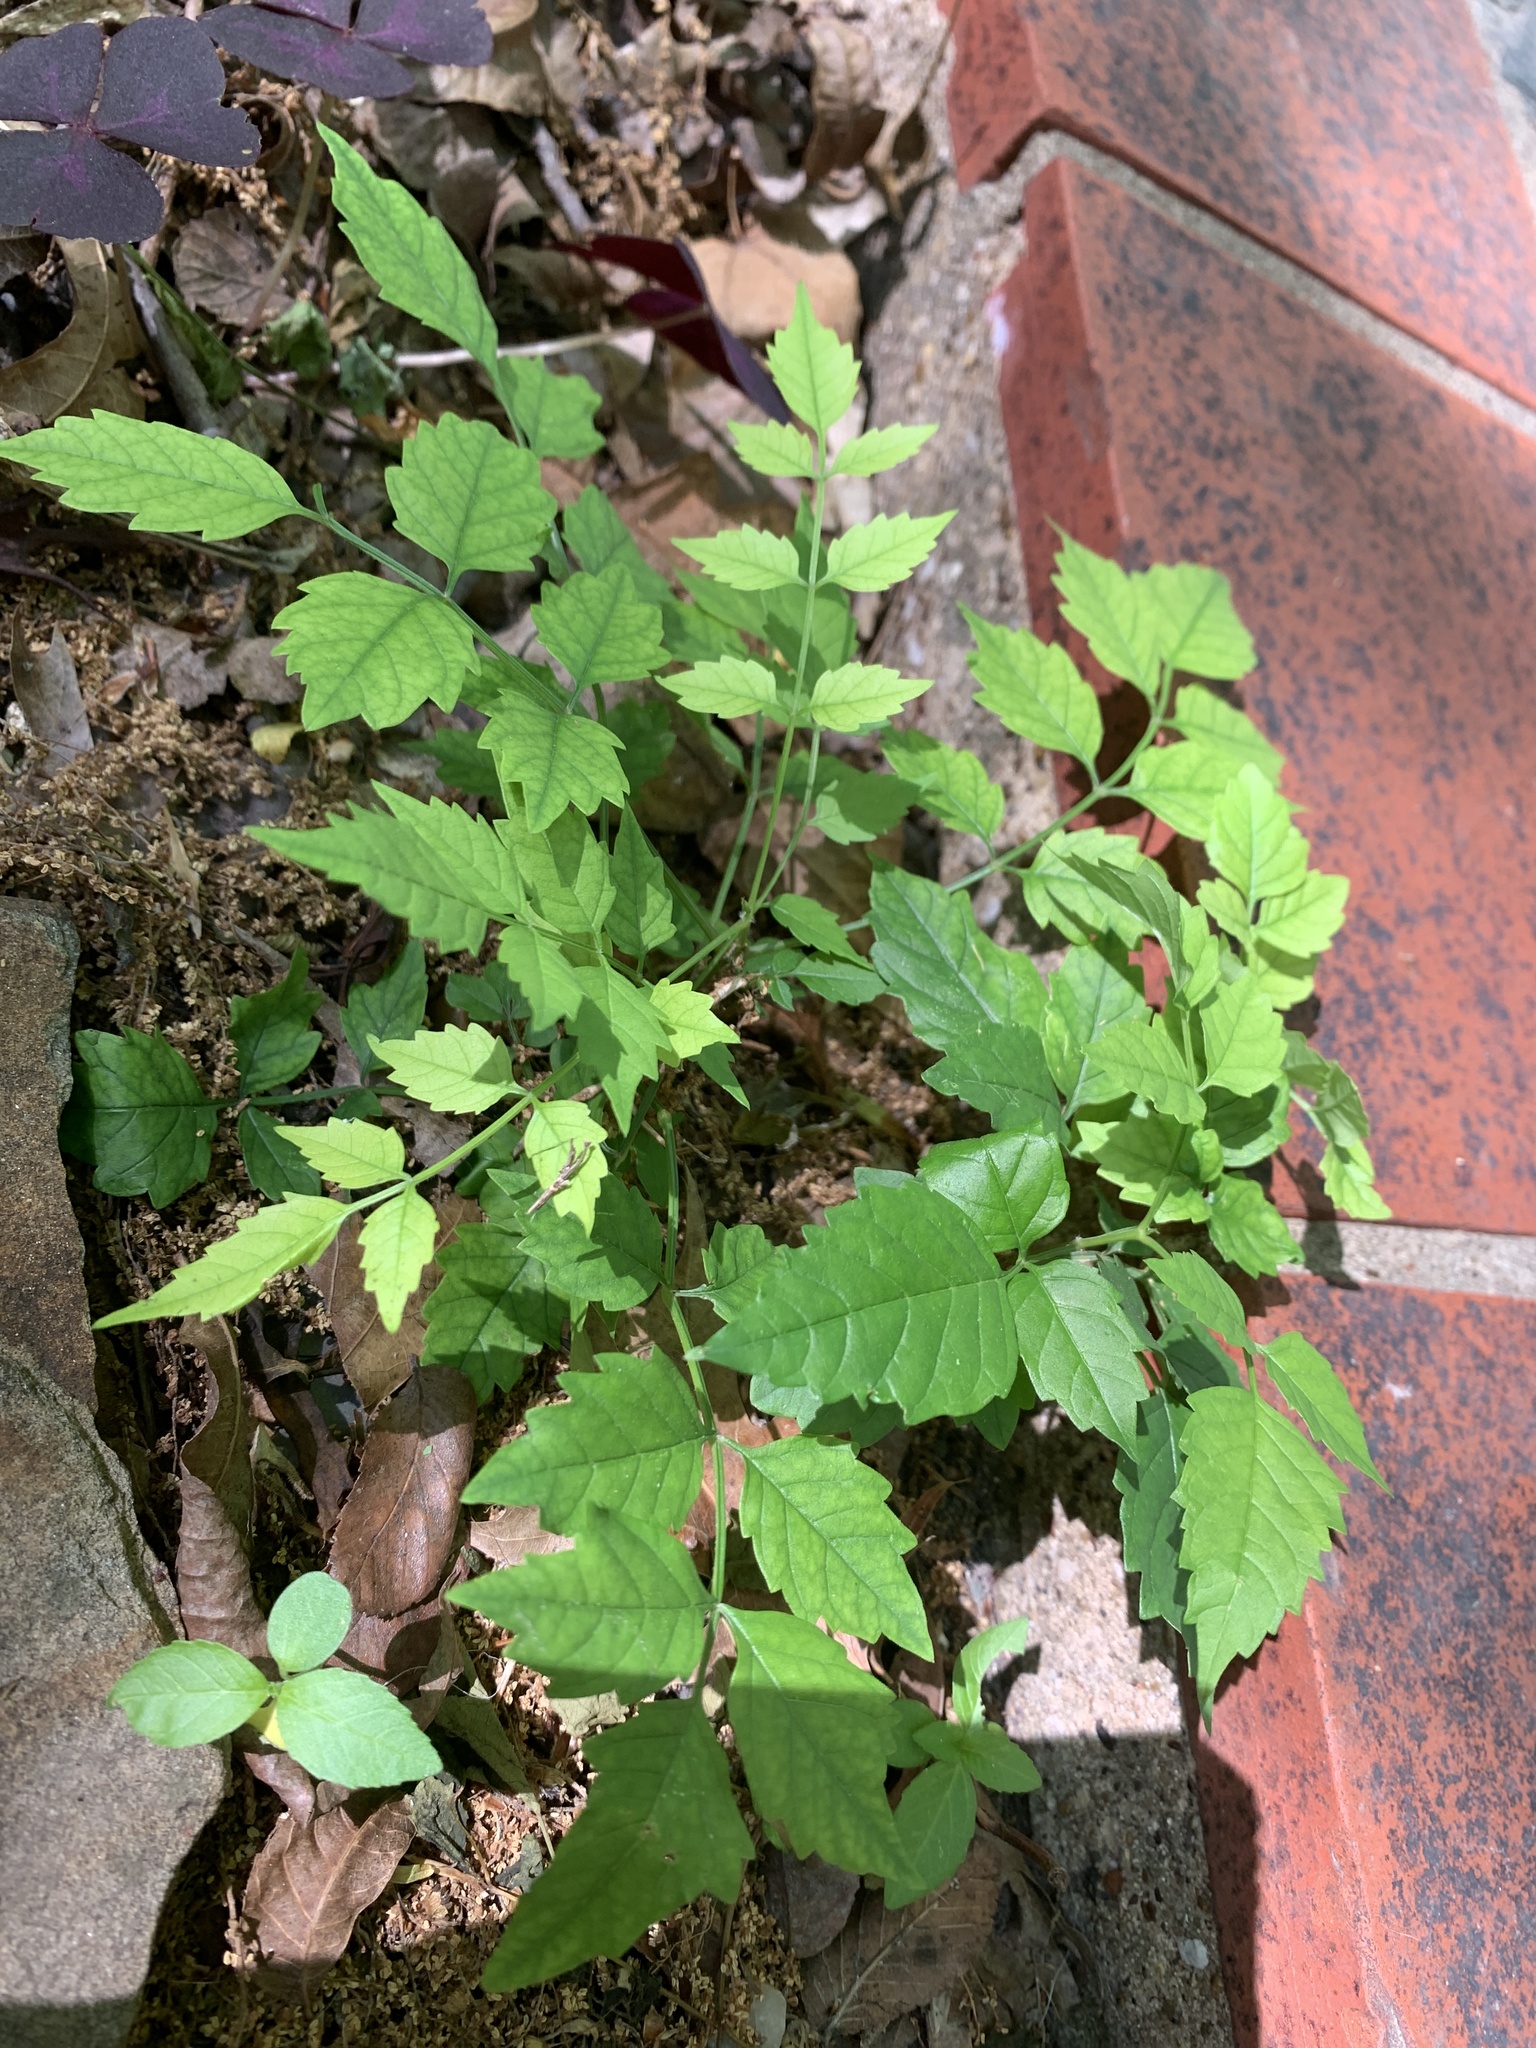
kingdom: Plantae
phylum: Tracheophyta
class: Magnoliopsida
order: Lamiales
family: Bignoniaceae
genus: Campsis
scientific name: Campsis radicans
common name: Trumpet-creeper
